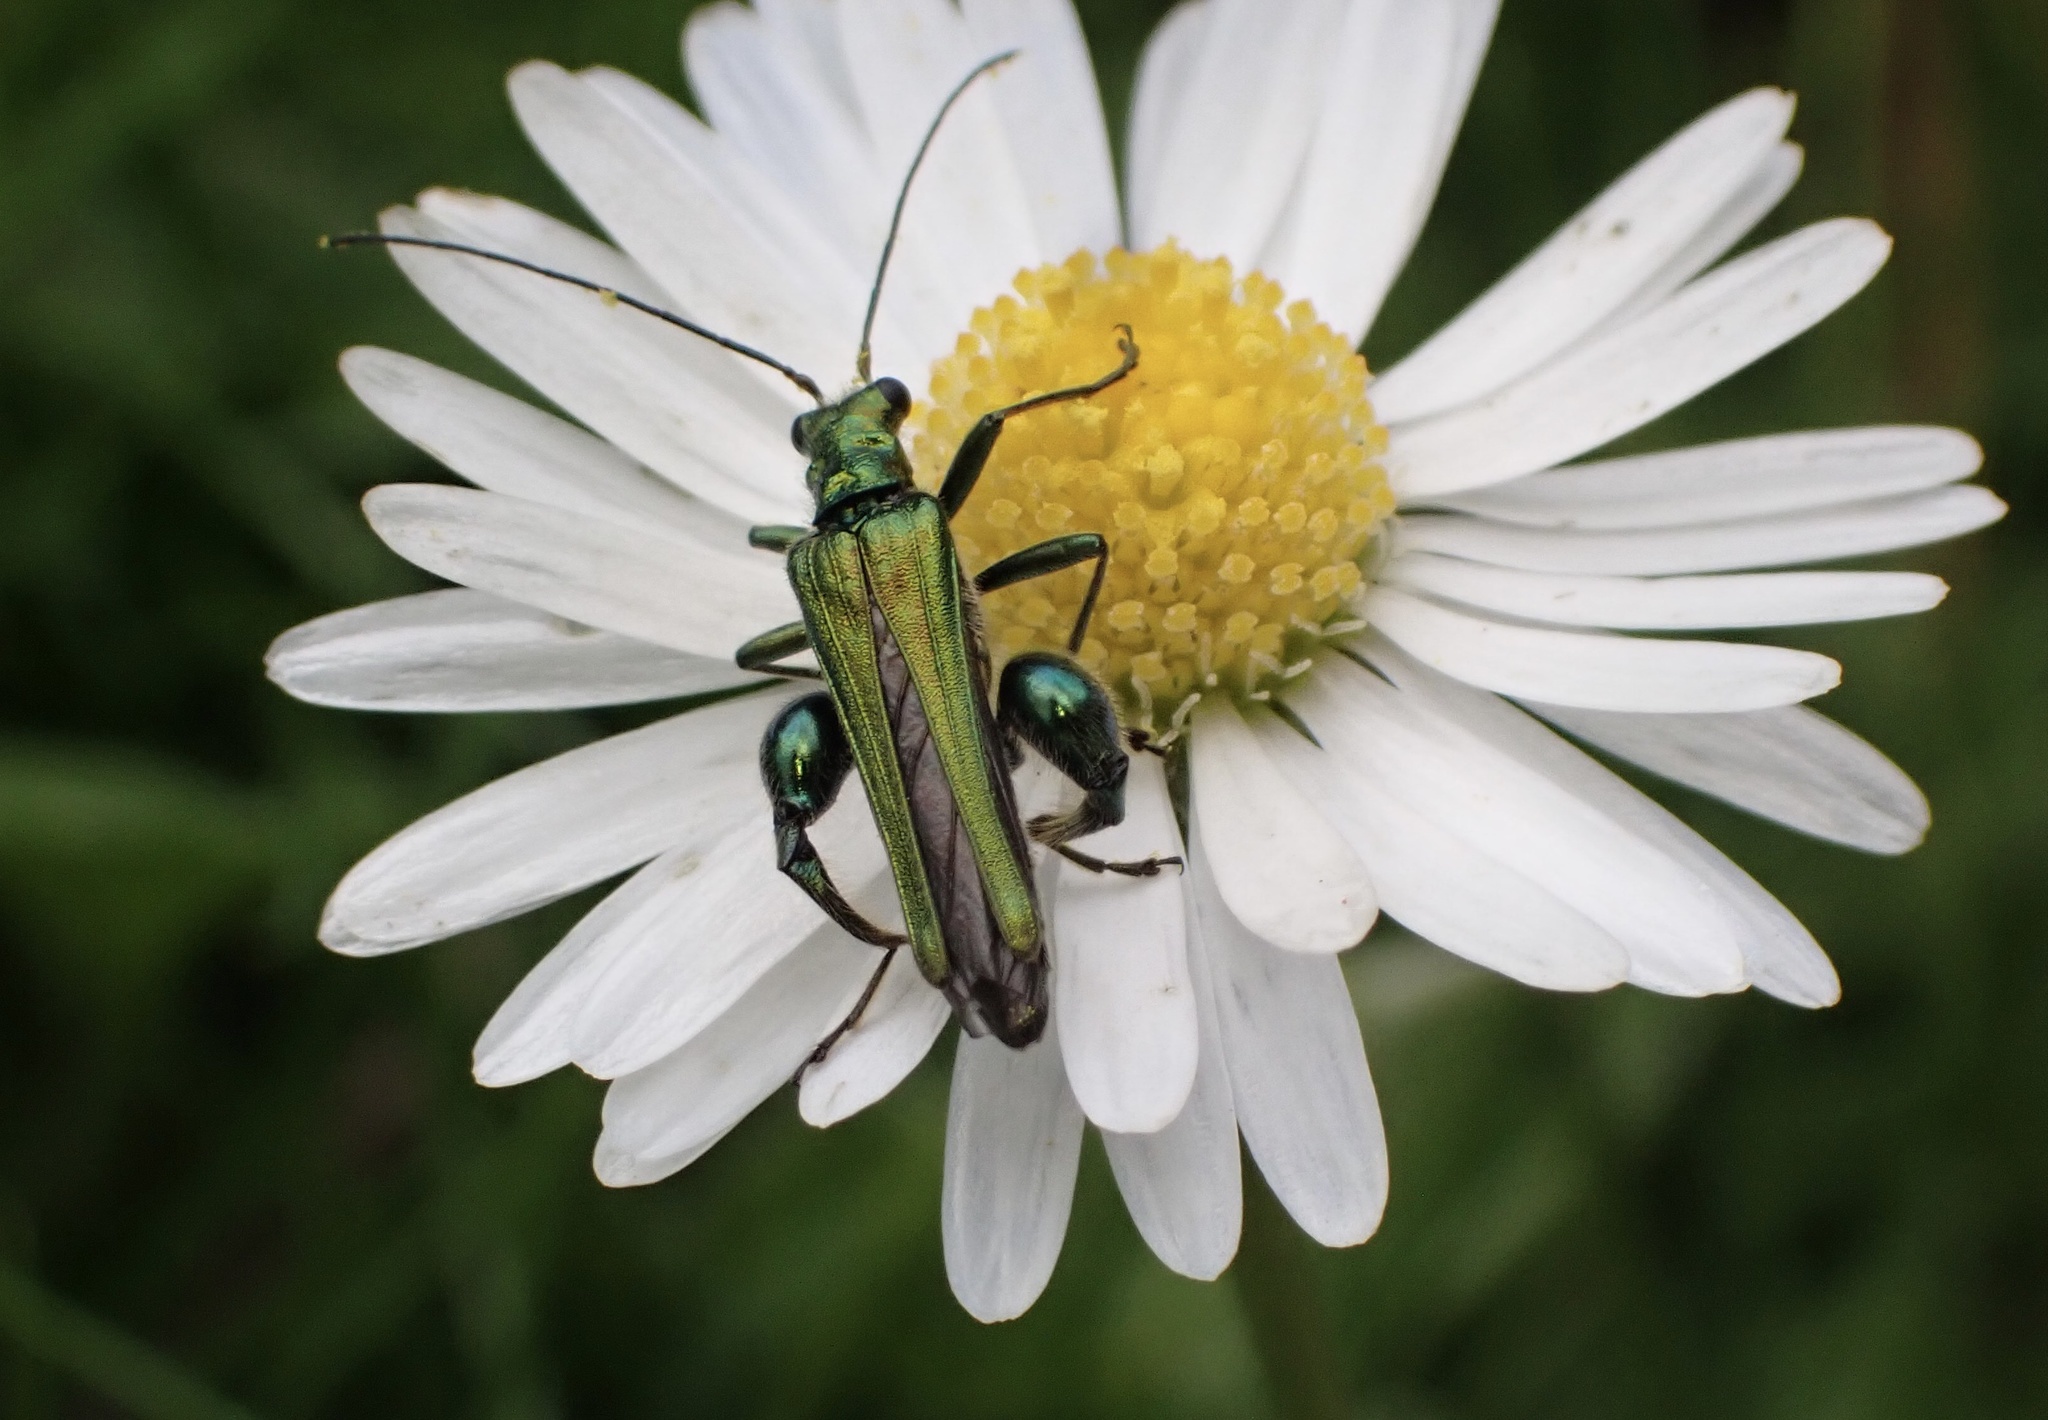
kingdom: Animalia
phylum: Arthropoda
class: Insecta
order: Coleoptera
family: Oedemeridae
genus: Oedemera
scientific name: Oedemera nobilis
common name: Swollen-thighed beetle
